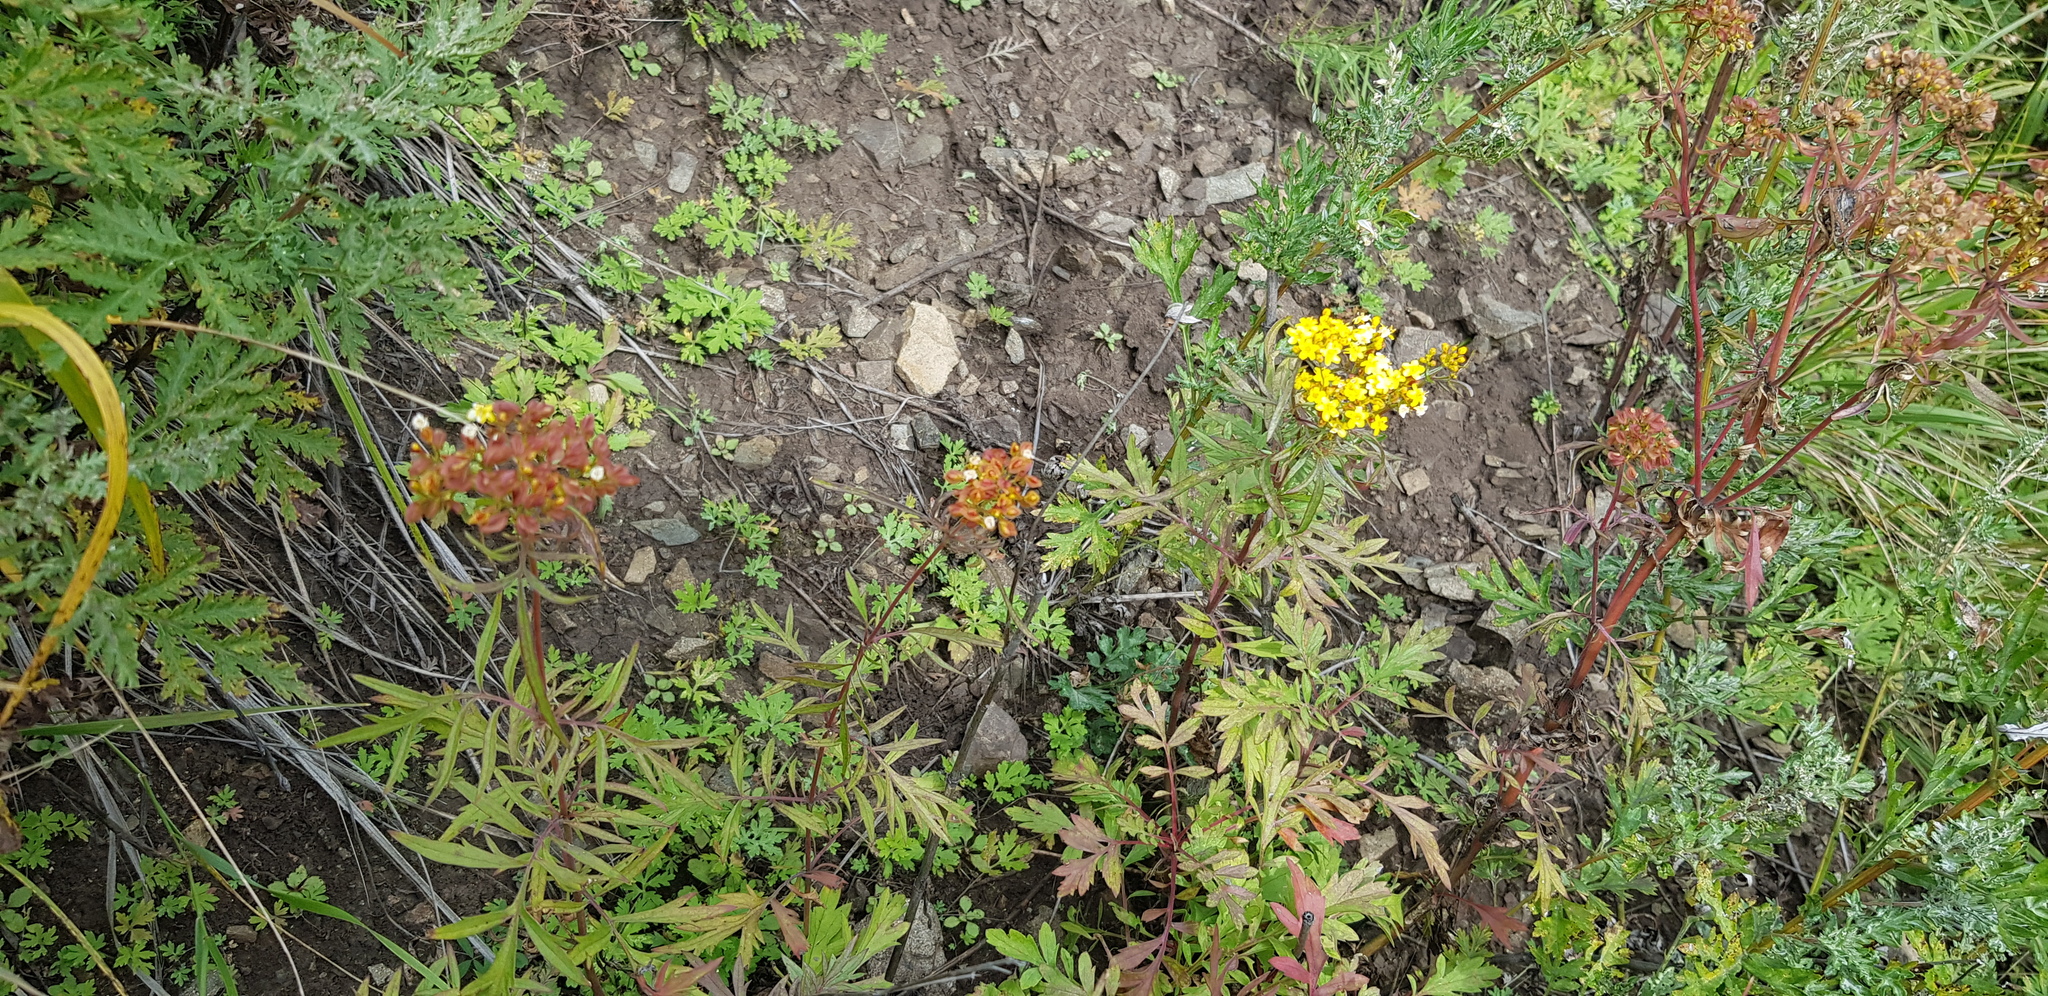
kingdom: Plantae
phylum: Tracheophyta
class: Magnoliopsida
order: Dipsacales
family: Caprifoliaceae
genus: Patrinia
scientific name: Patrinia rupestris
